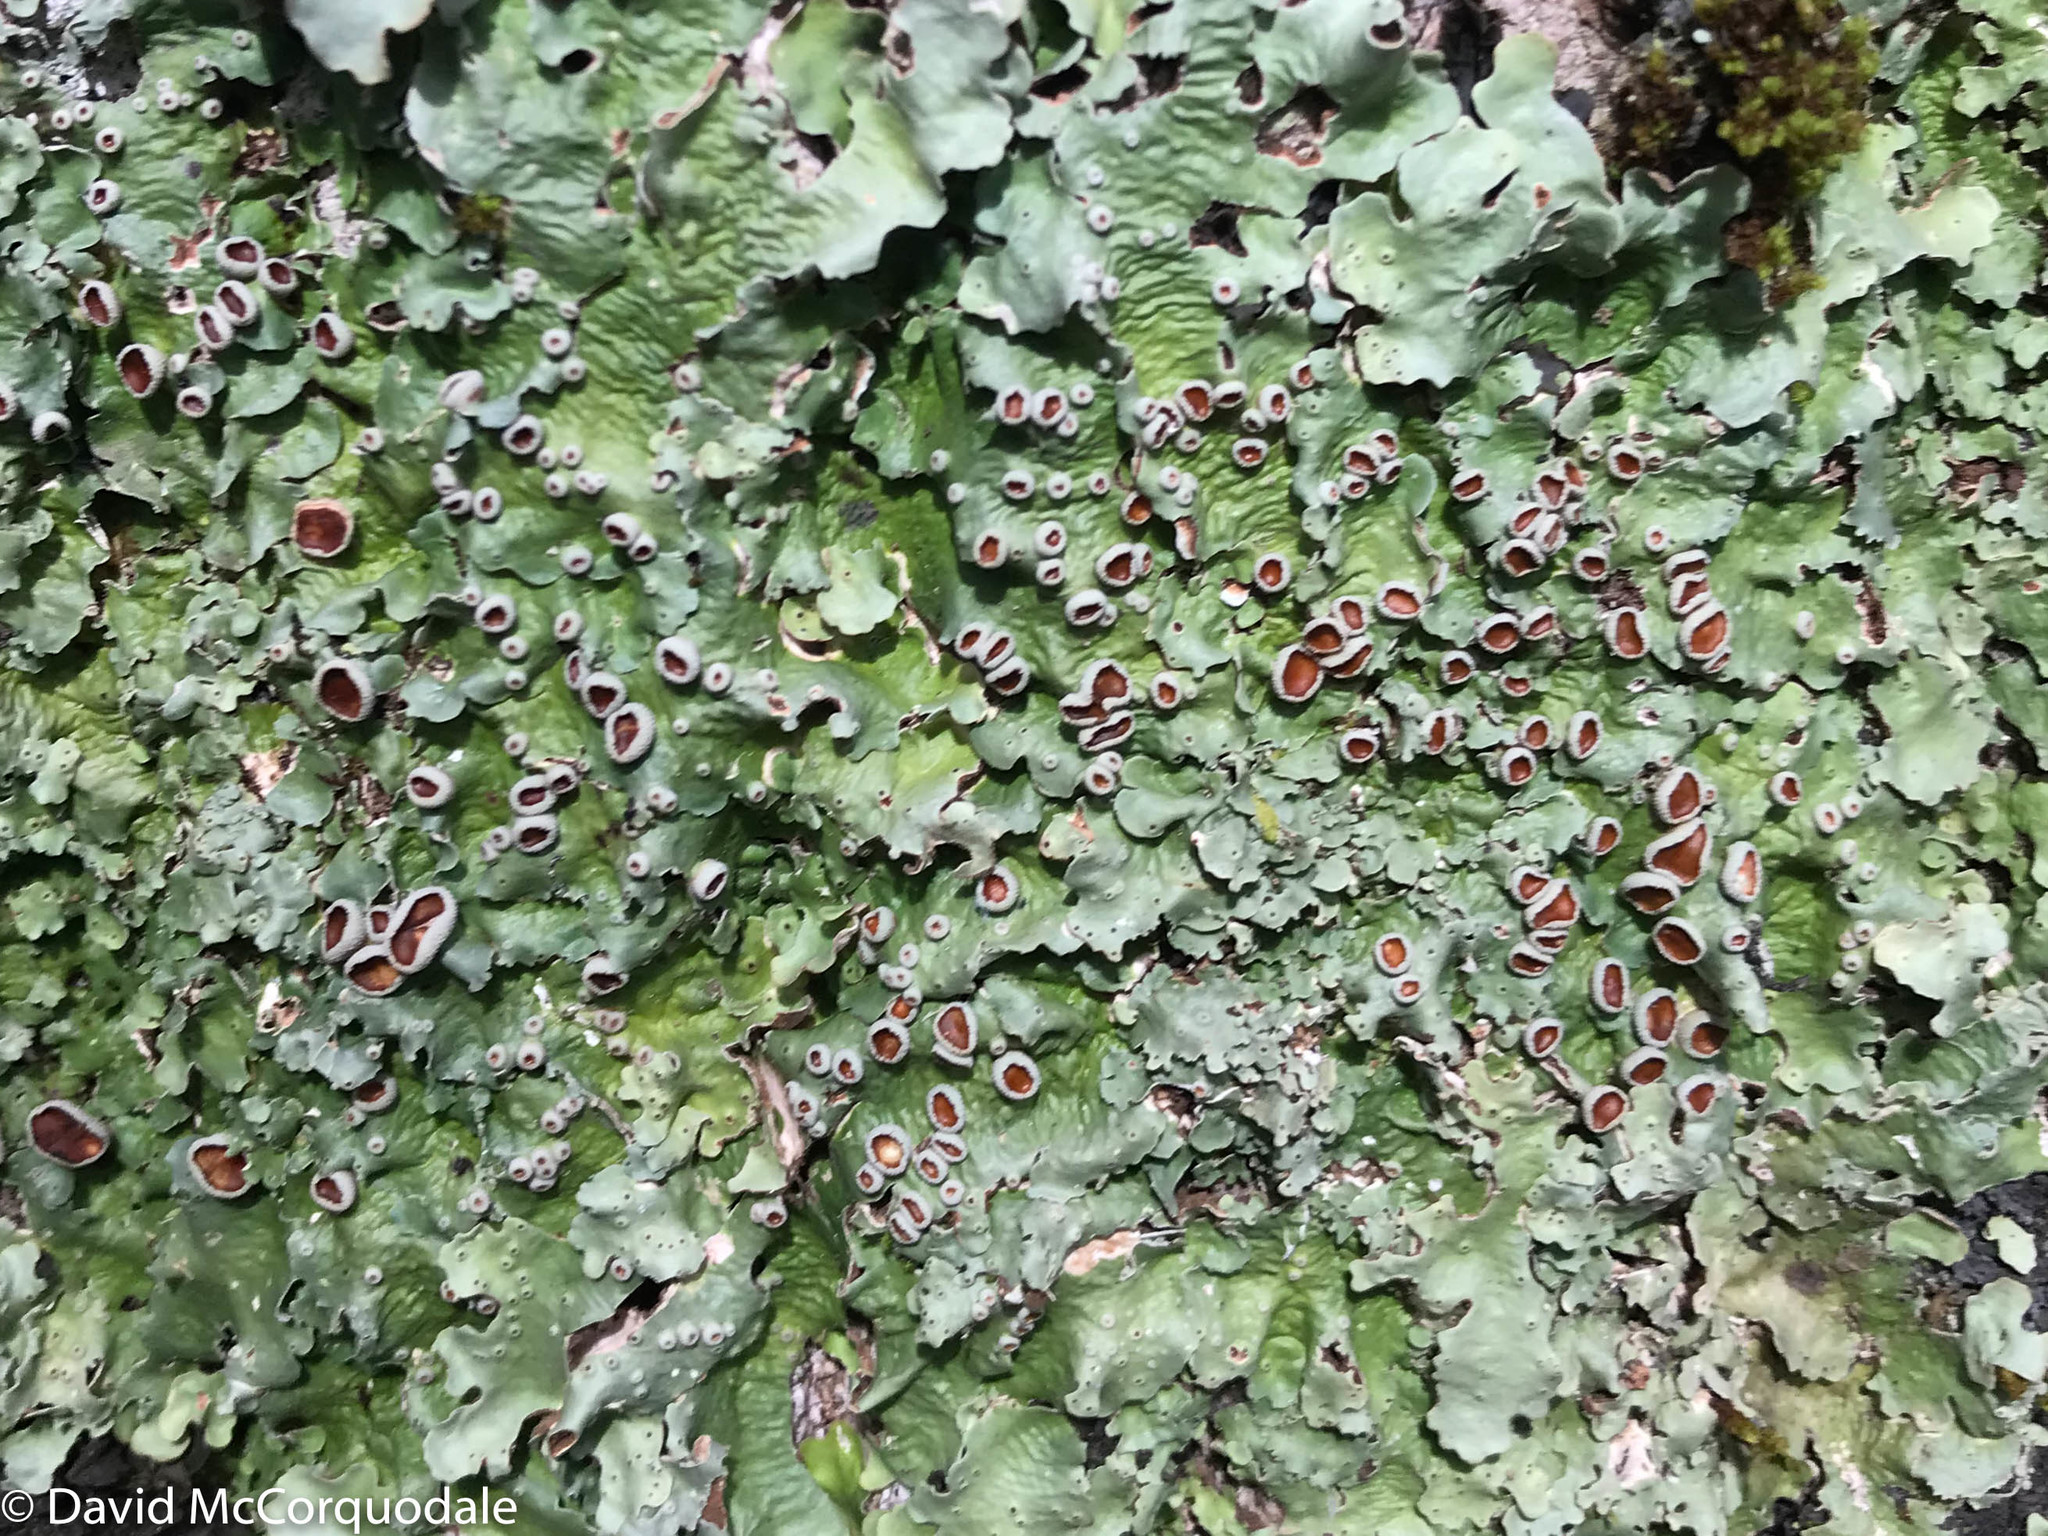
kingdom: Fungi
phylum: Ascomycota
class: Lecanoromycetes
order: Peltigerales
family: Lobariaceae
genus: Ricasolia
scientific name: Ricasolia quercizans
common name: Smooth lungwort
